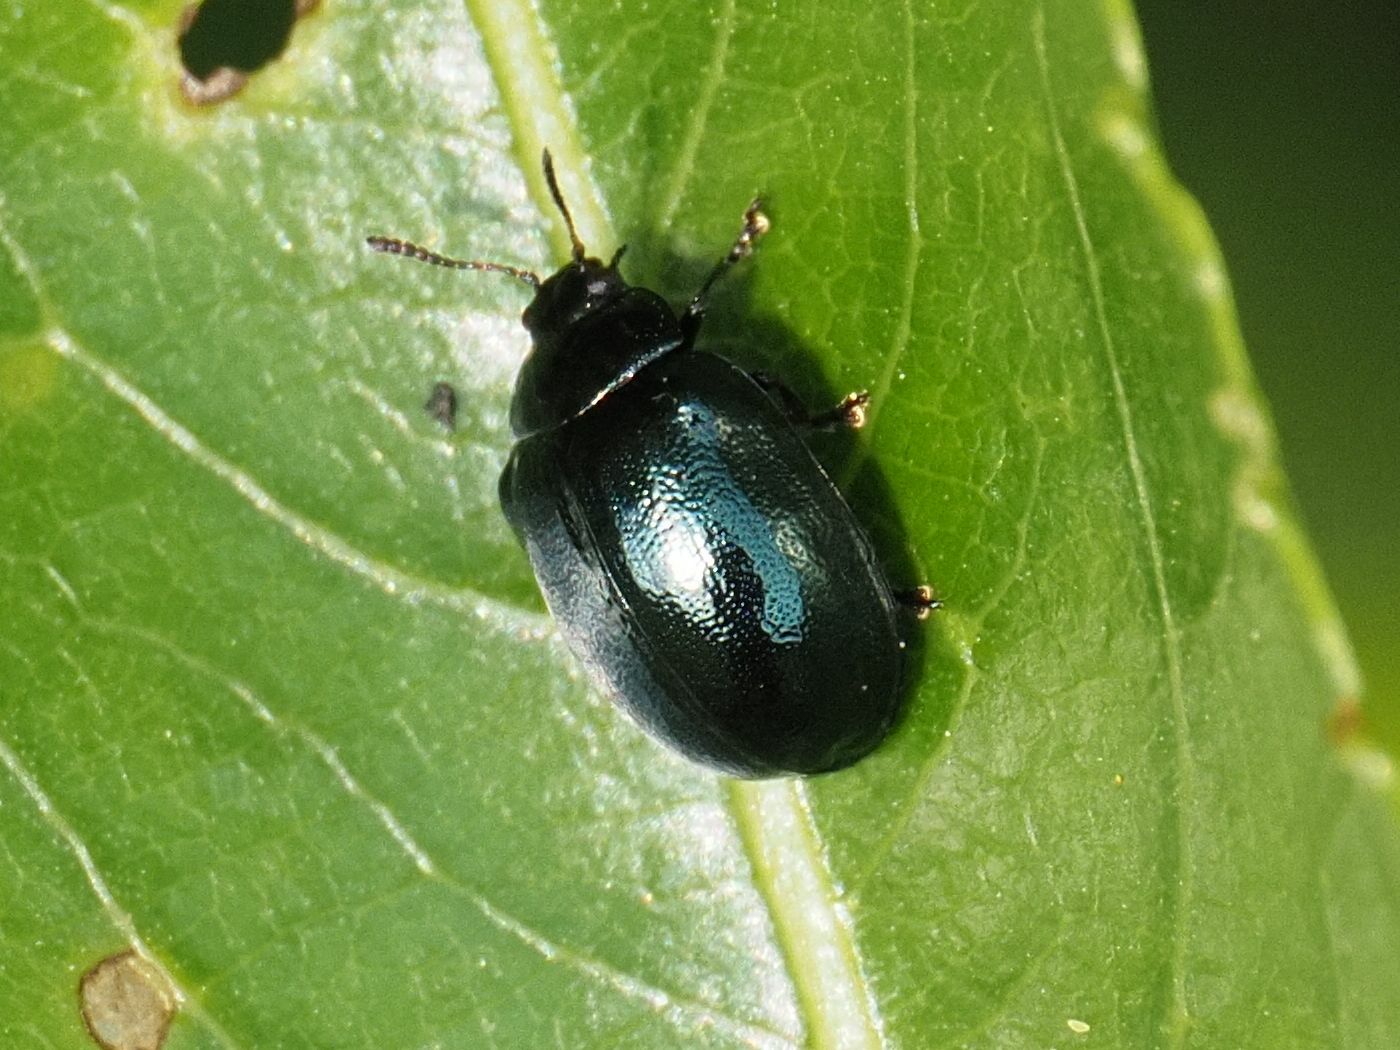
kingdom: Animalia
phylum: Arthropoda
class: Insecta
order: Coleoptera
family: Chrysomelidae
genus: Plagiodera
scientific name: Plagiodera versicolora
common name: Imported willow leaf beetle
